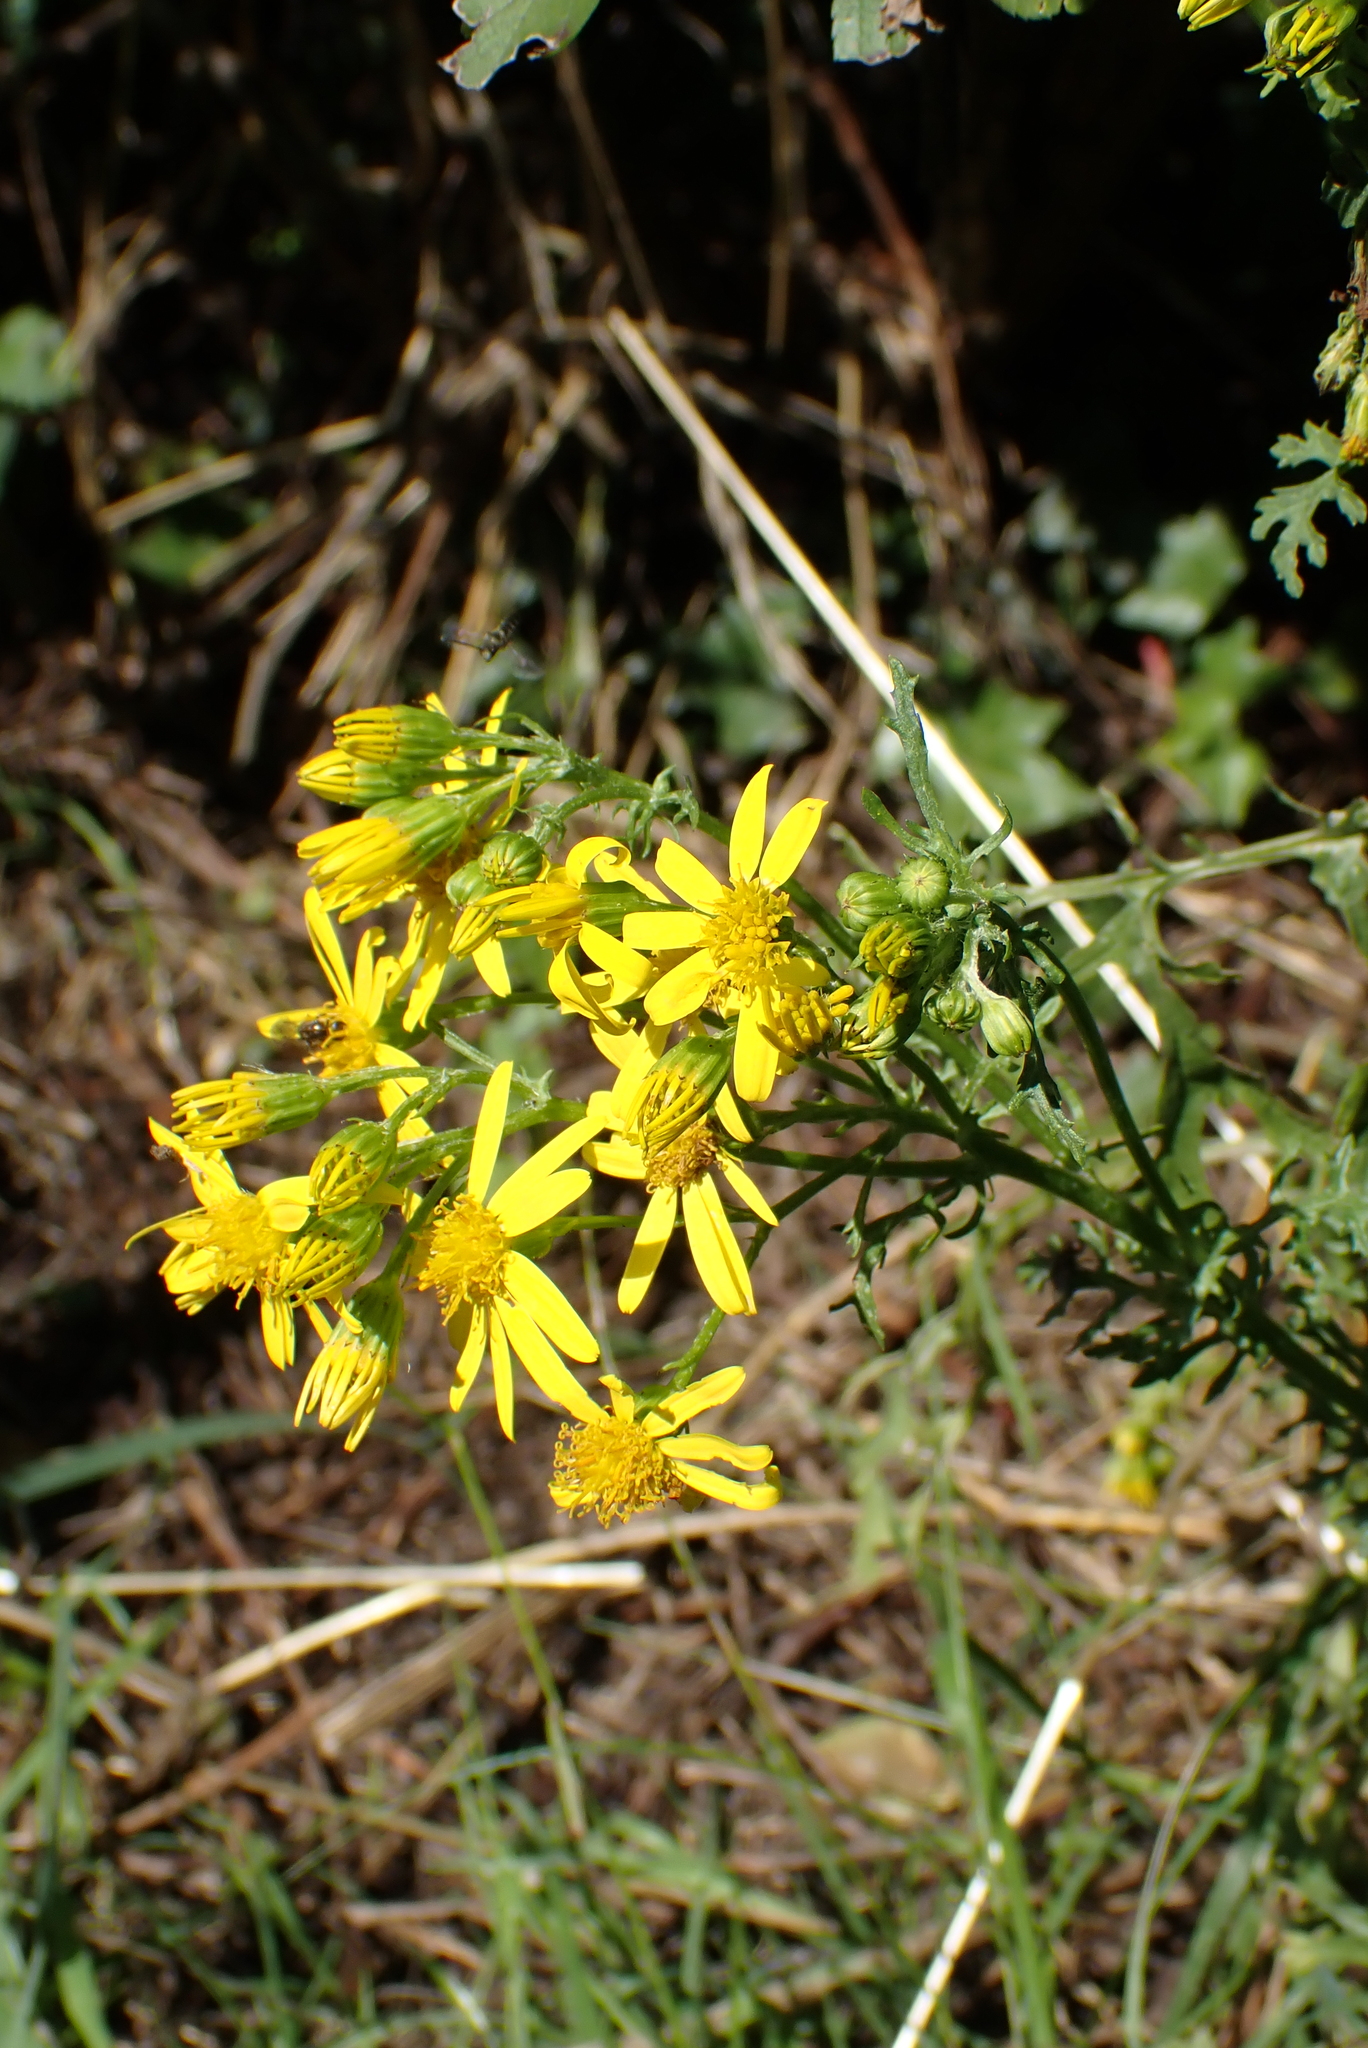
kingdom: Plantae
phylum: Tracheophyta
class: Magnoliopsida
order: Asterales
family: Asteraceae
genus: Jacobaea
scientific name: Jacobaea vulgaris
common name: Stinking willie
